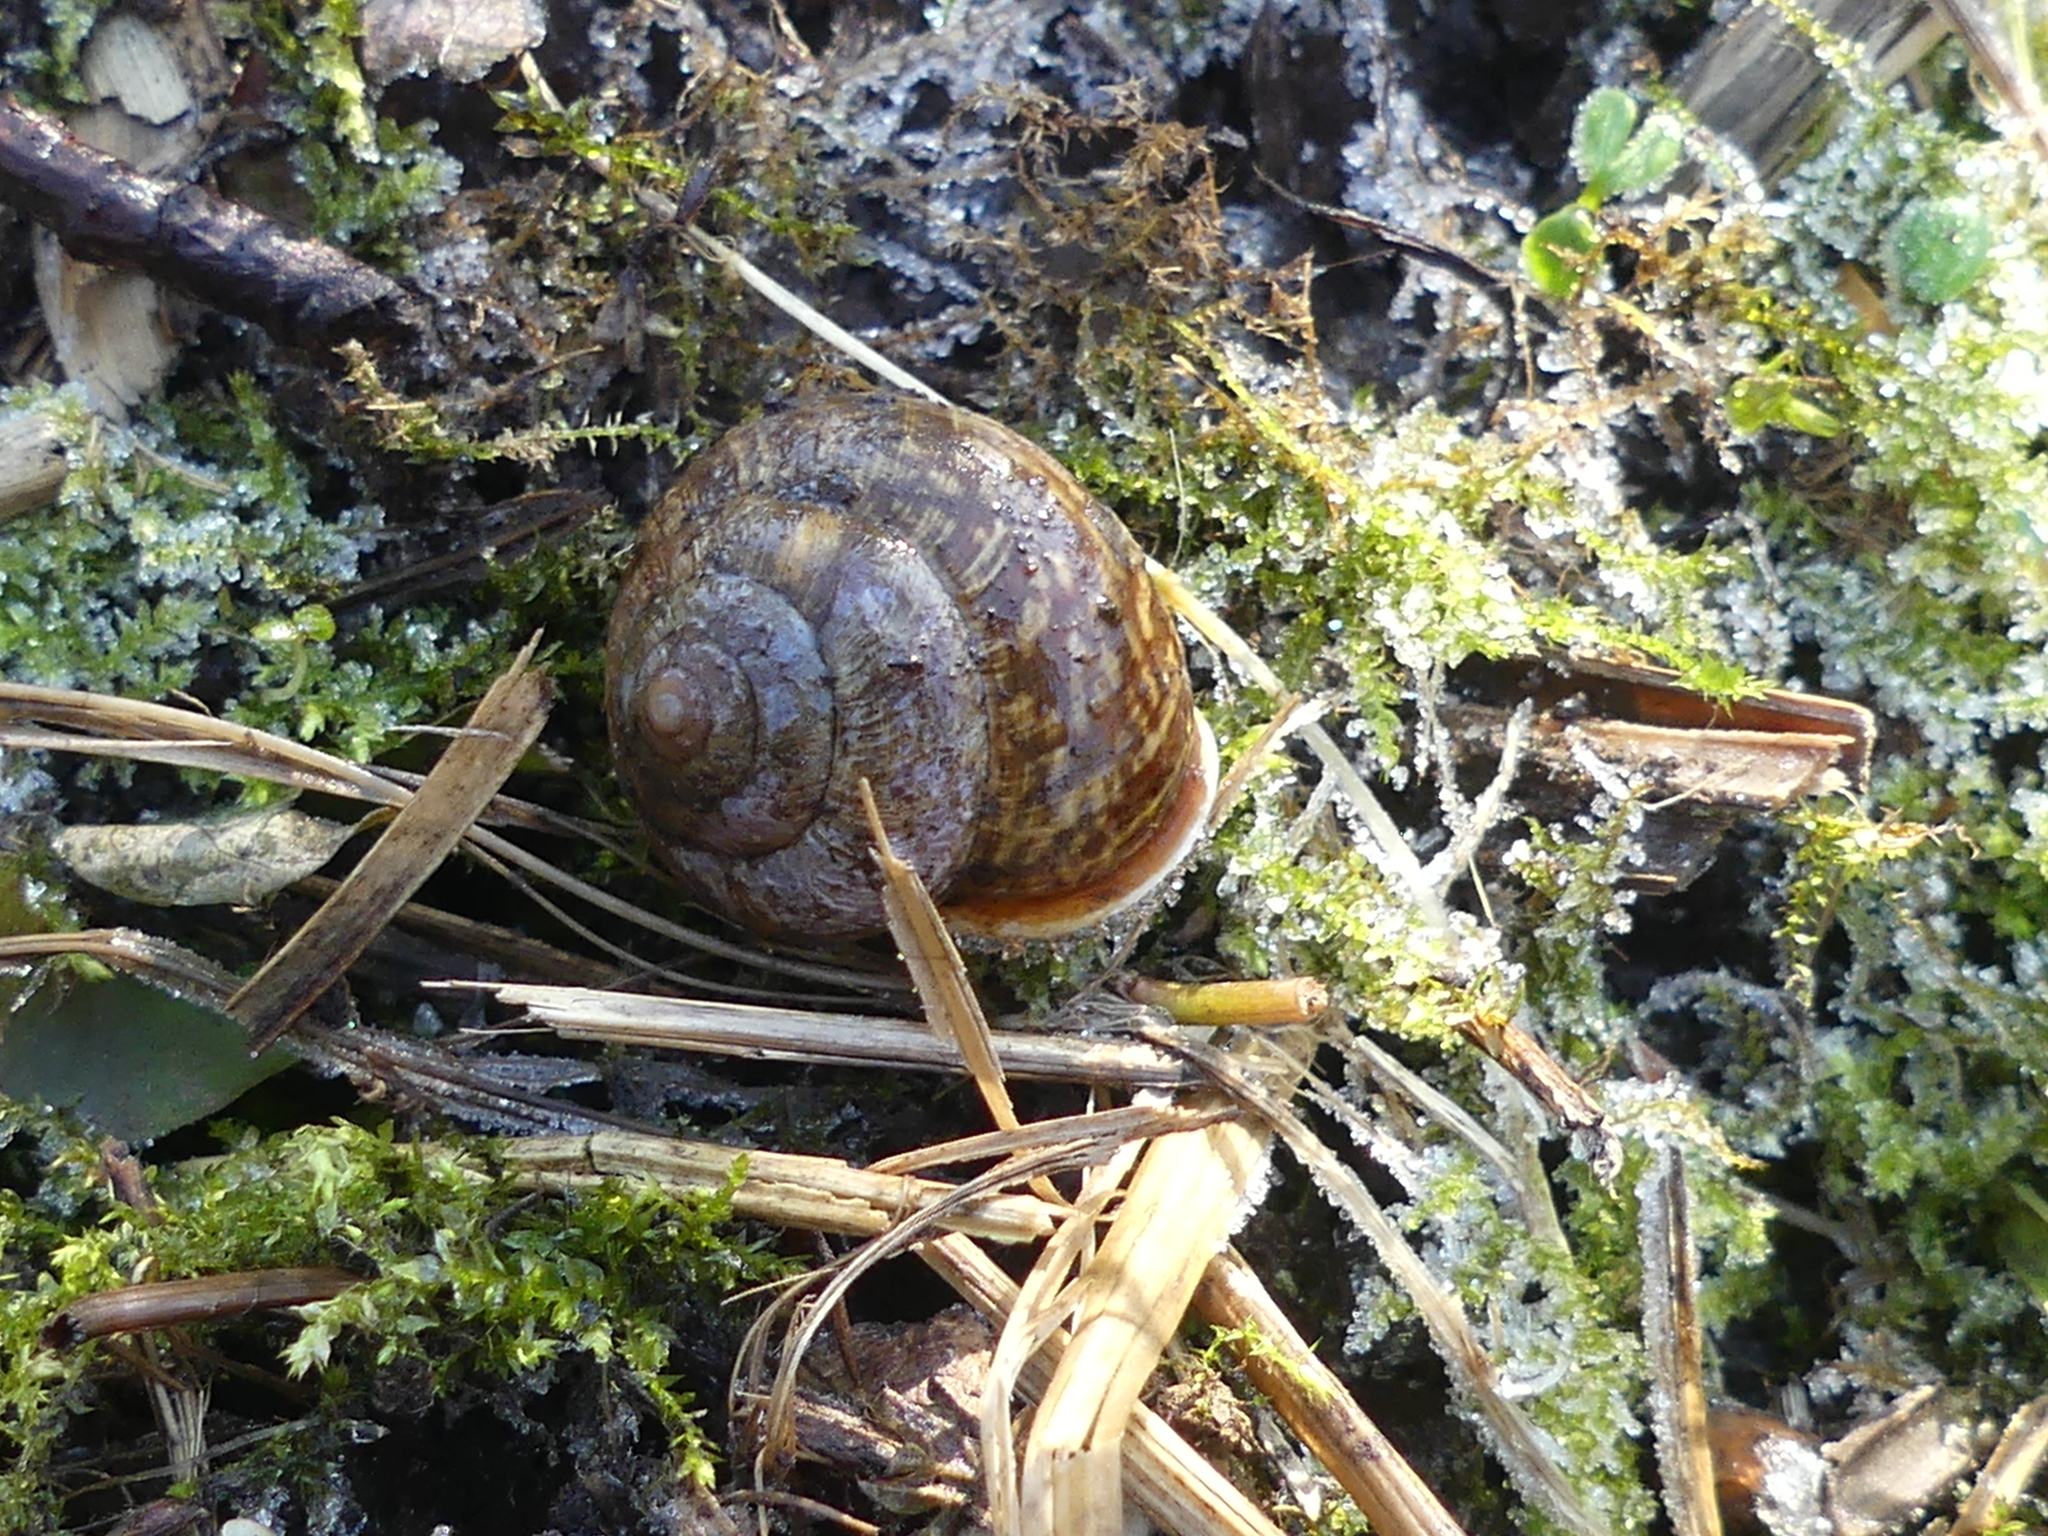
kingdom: Animalia
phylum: Mollusca
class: Gastropoda
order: Stylommatophora
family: Helicidae
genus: Arianta
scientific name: Arianta arbustorum
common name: Copse snail
